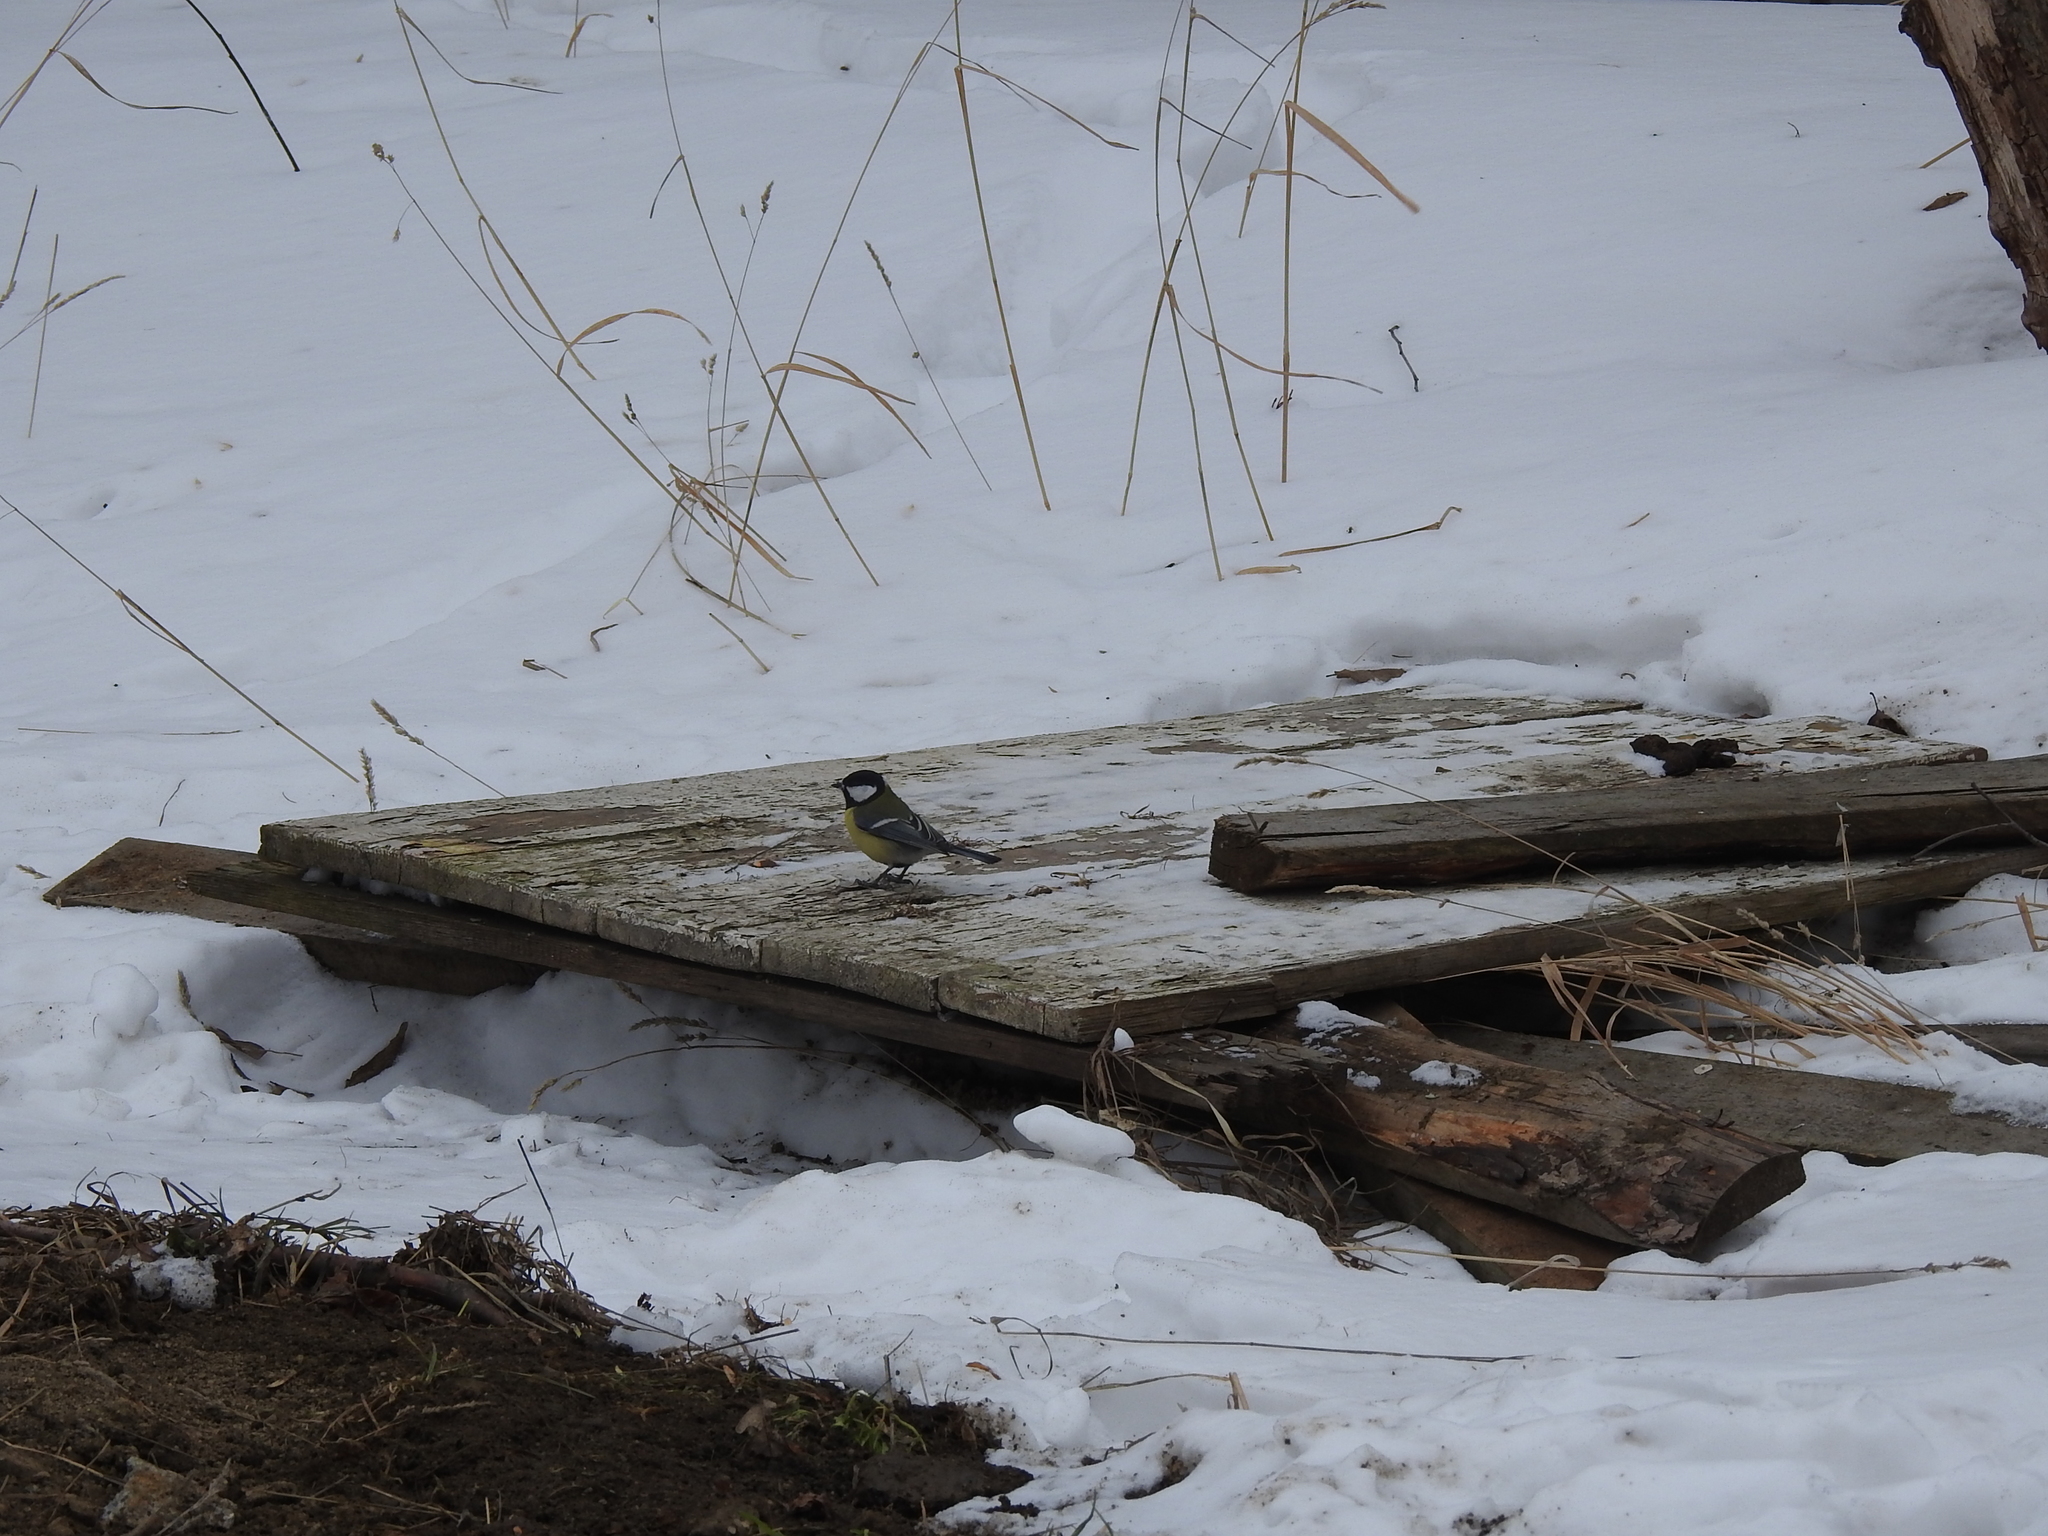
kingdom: Animalia
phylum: Chordata
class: Aves
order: Passeriformes
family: Paridae
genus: Parus
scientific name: Parus major
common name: Great tit
